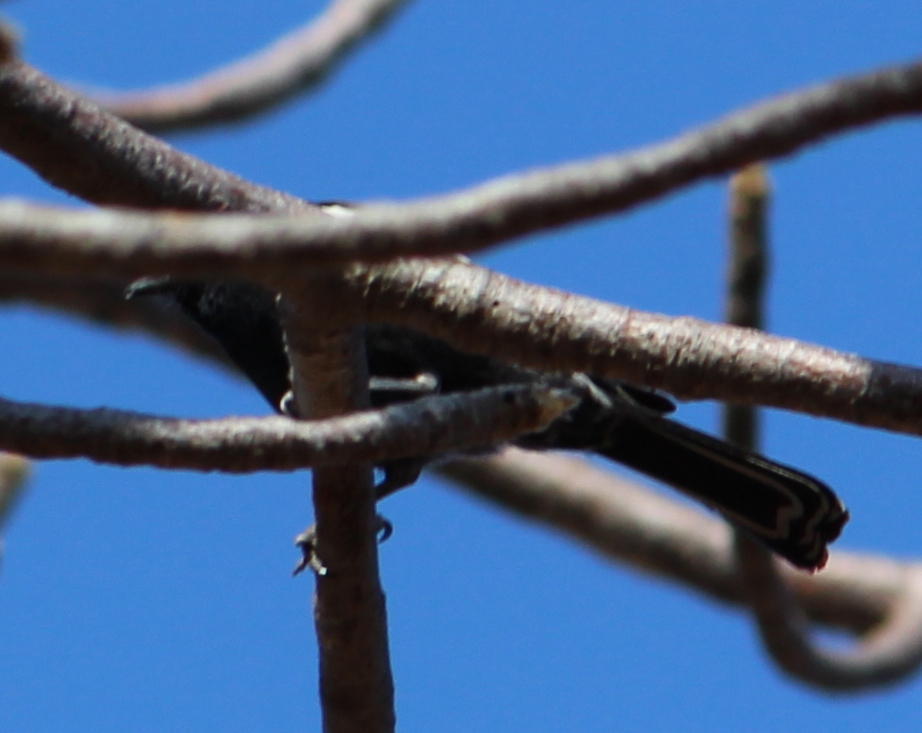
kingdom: Animalia
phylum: Chordata
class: Aves
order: Passeriformes
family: Paridae
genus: Parus
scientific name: Parus niger
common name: Southern black tit
